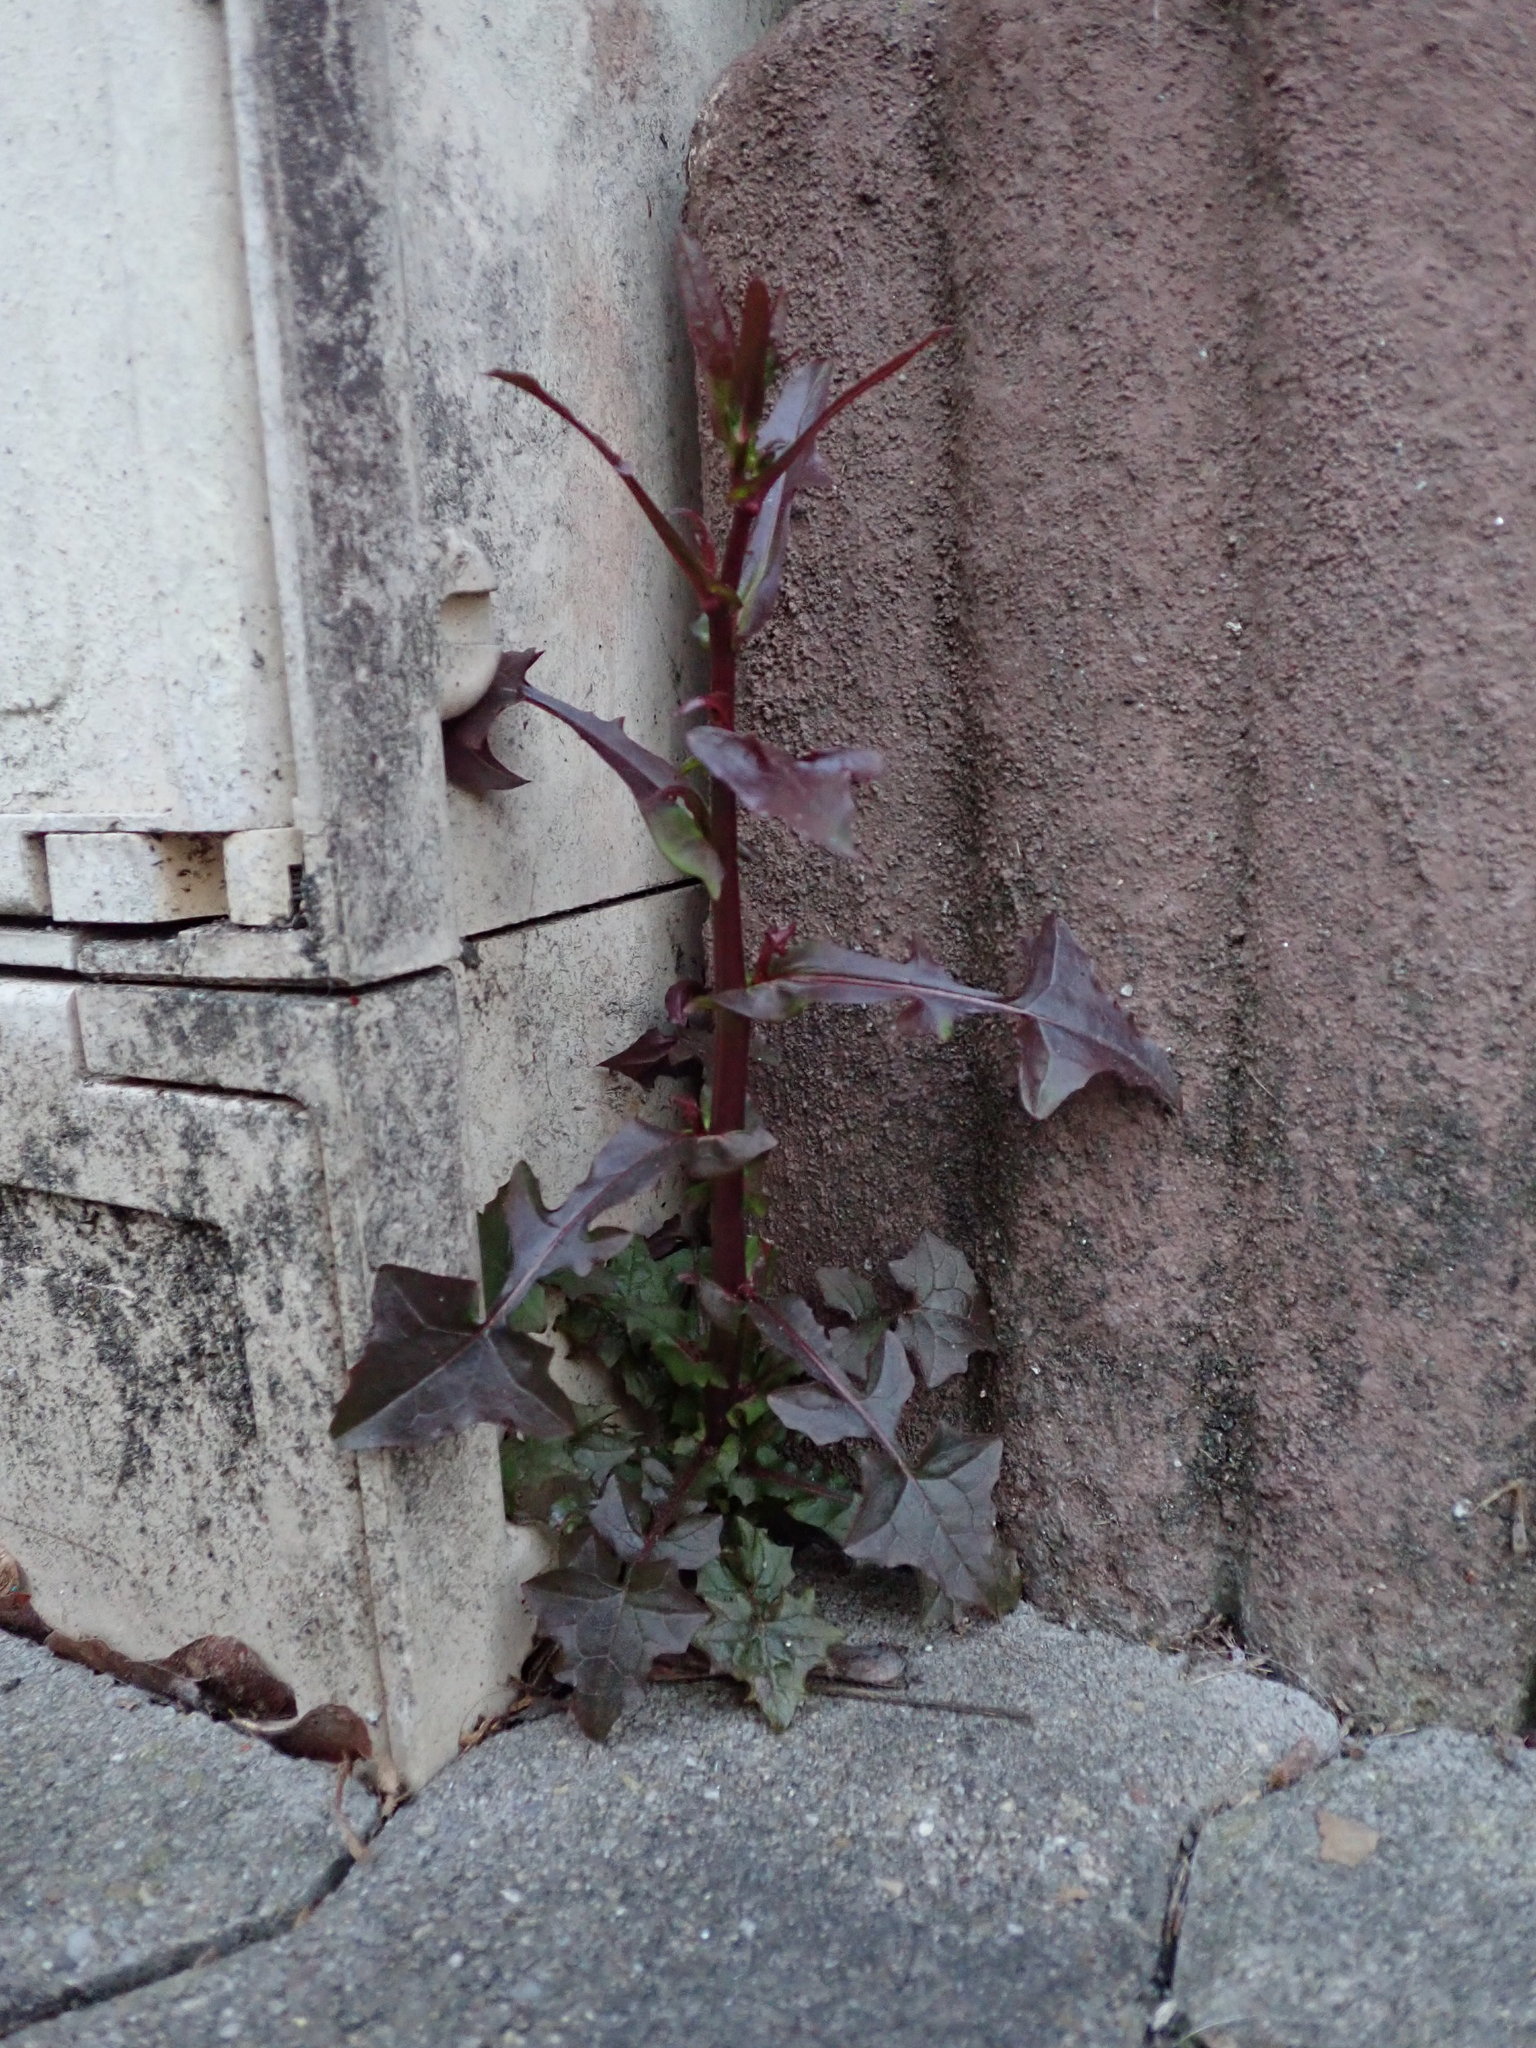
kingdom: Plantae
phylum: Tracheophyta
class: Magnoliopsida
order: Asterales
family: Asteraceae
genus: Mycelis
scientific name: Mycelis muralis
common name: Wall lettuce
